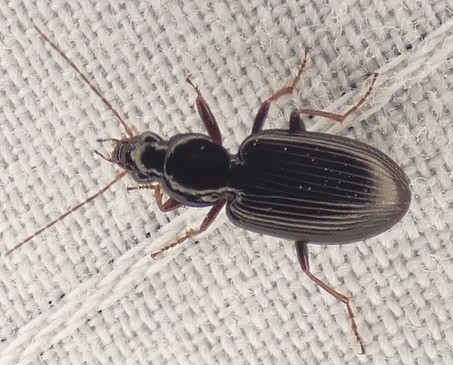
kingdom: Animalia
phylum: Arthropoda
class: Insecta
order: Coleoptera
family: Carabidae
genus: Agonum
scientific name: Agonum punctiforme
